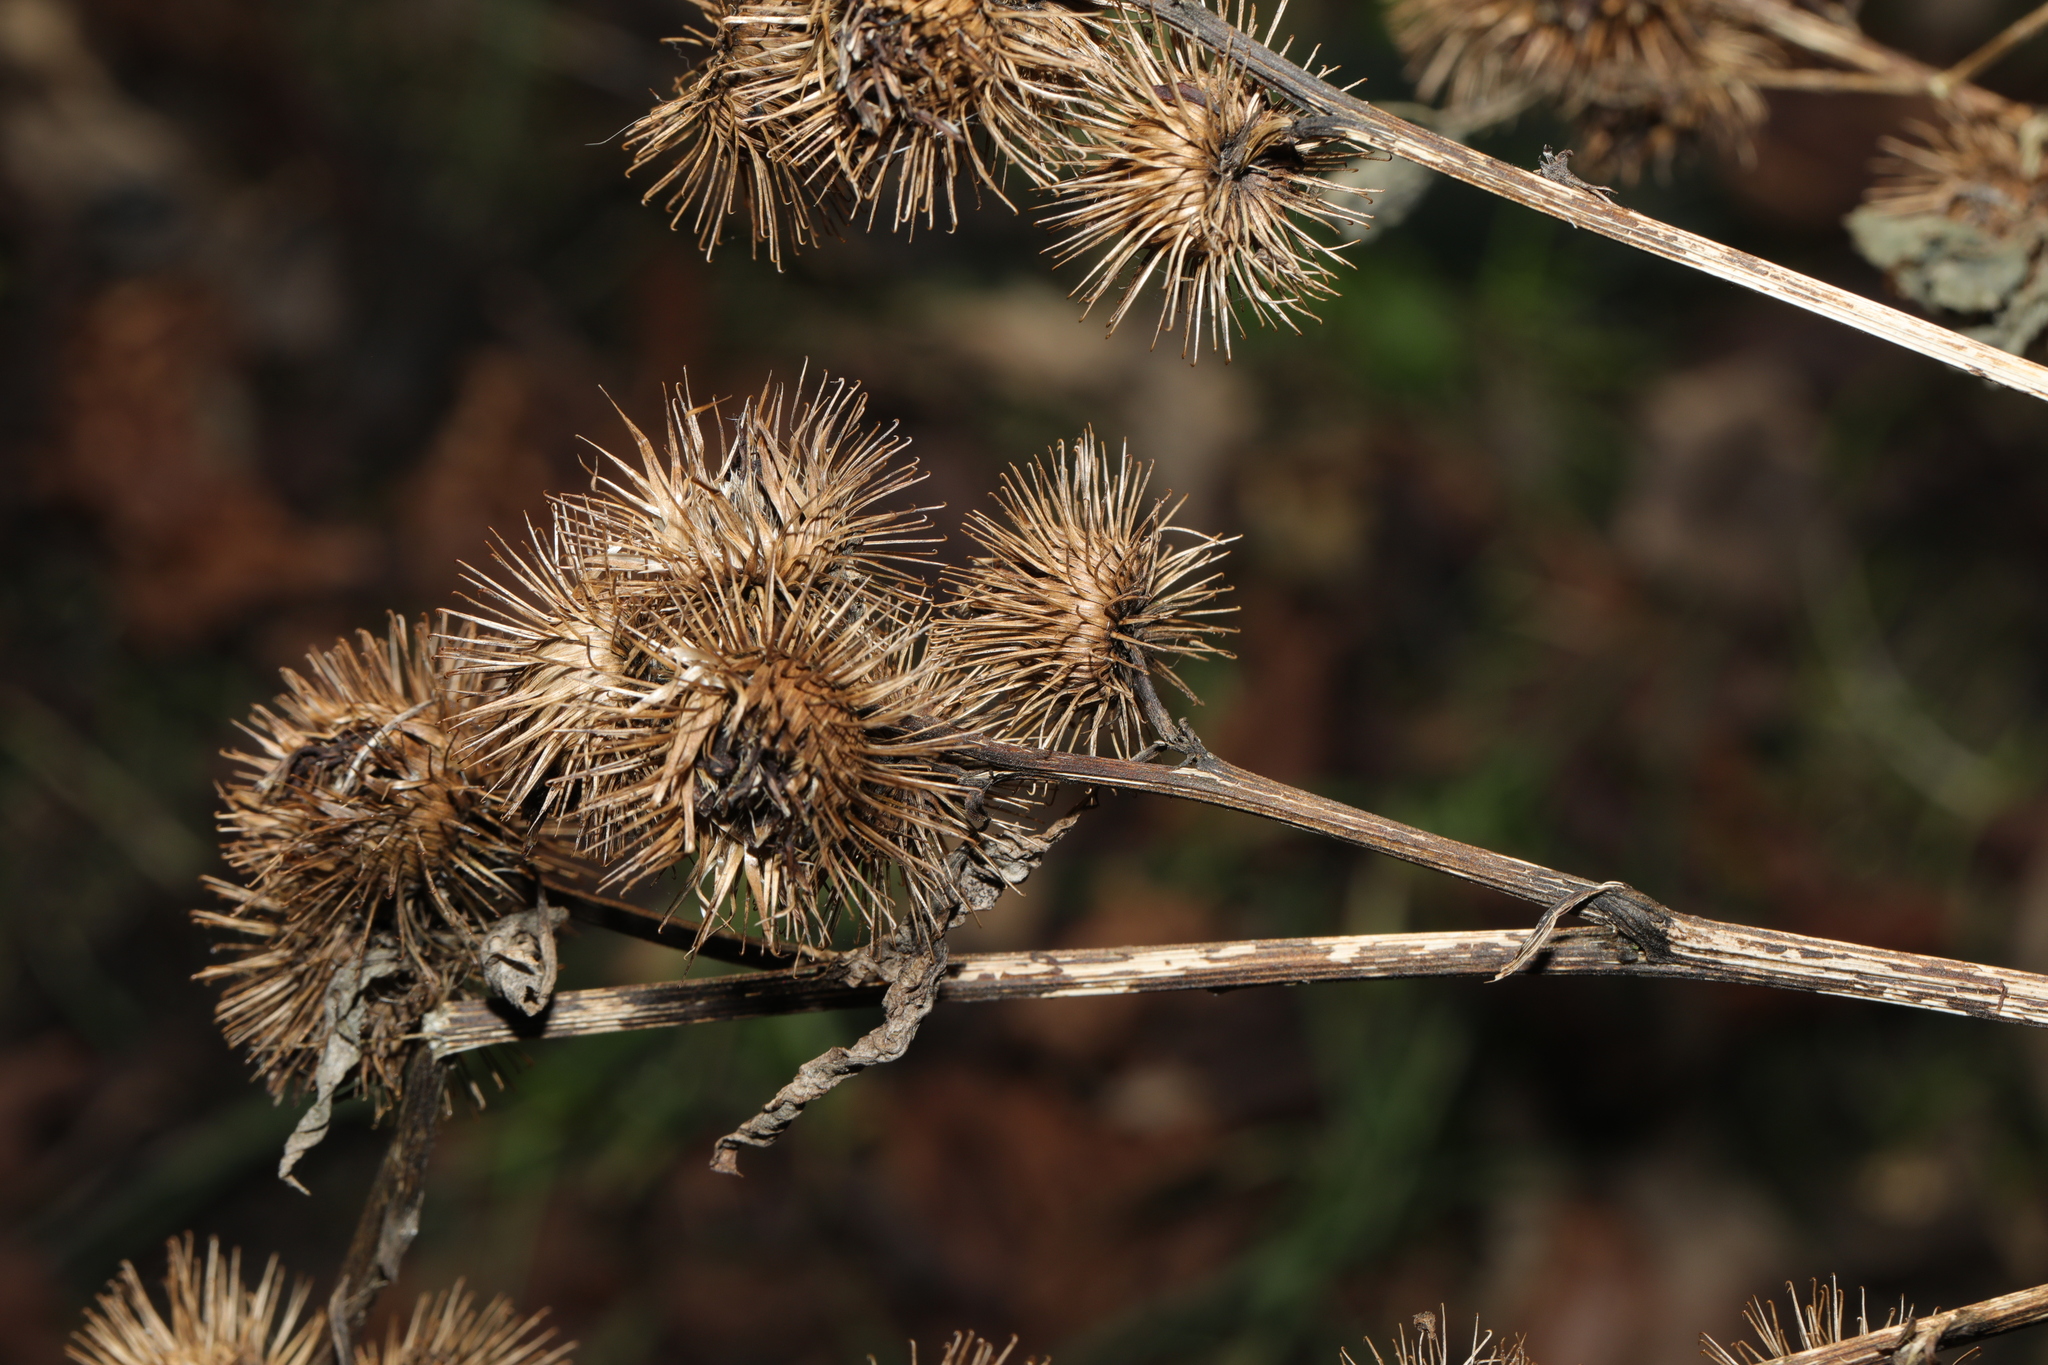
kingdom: Plantae
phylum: Tracheophyta
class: Magnoliopsida
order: Asterales
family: Asteraceae
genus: Arctium
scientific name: Arctium minus
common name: Lesser burdock
